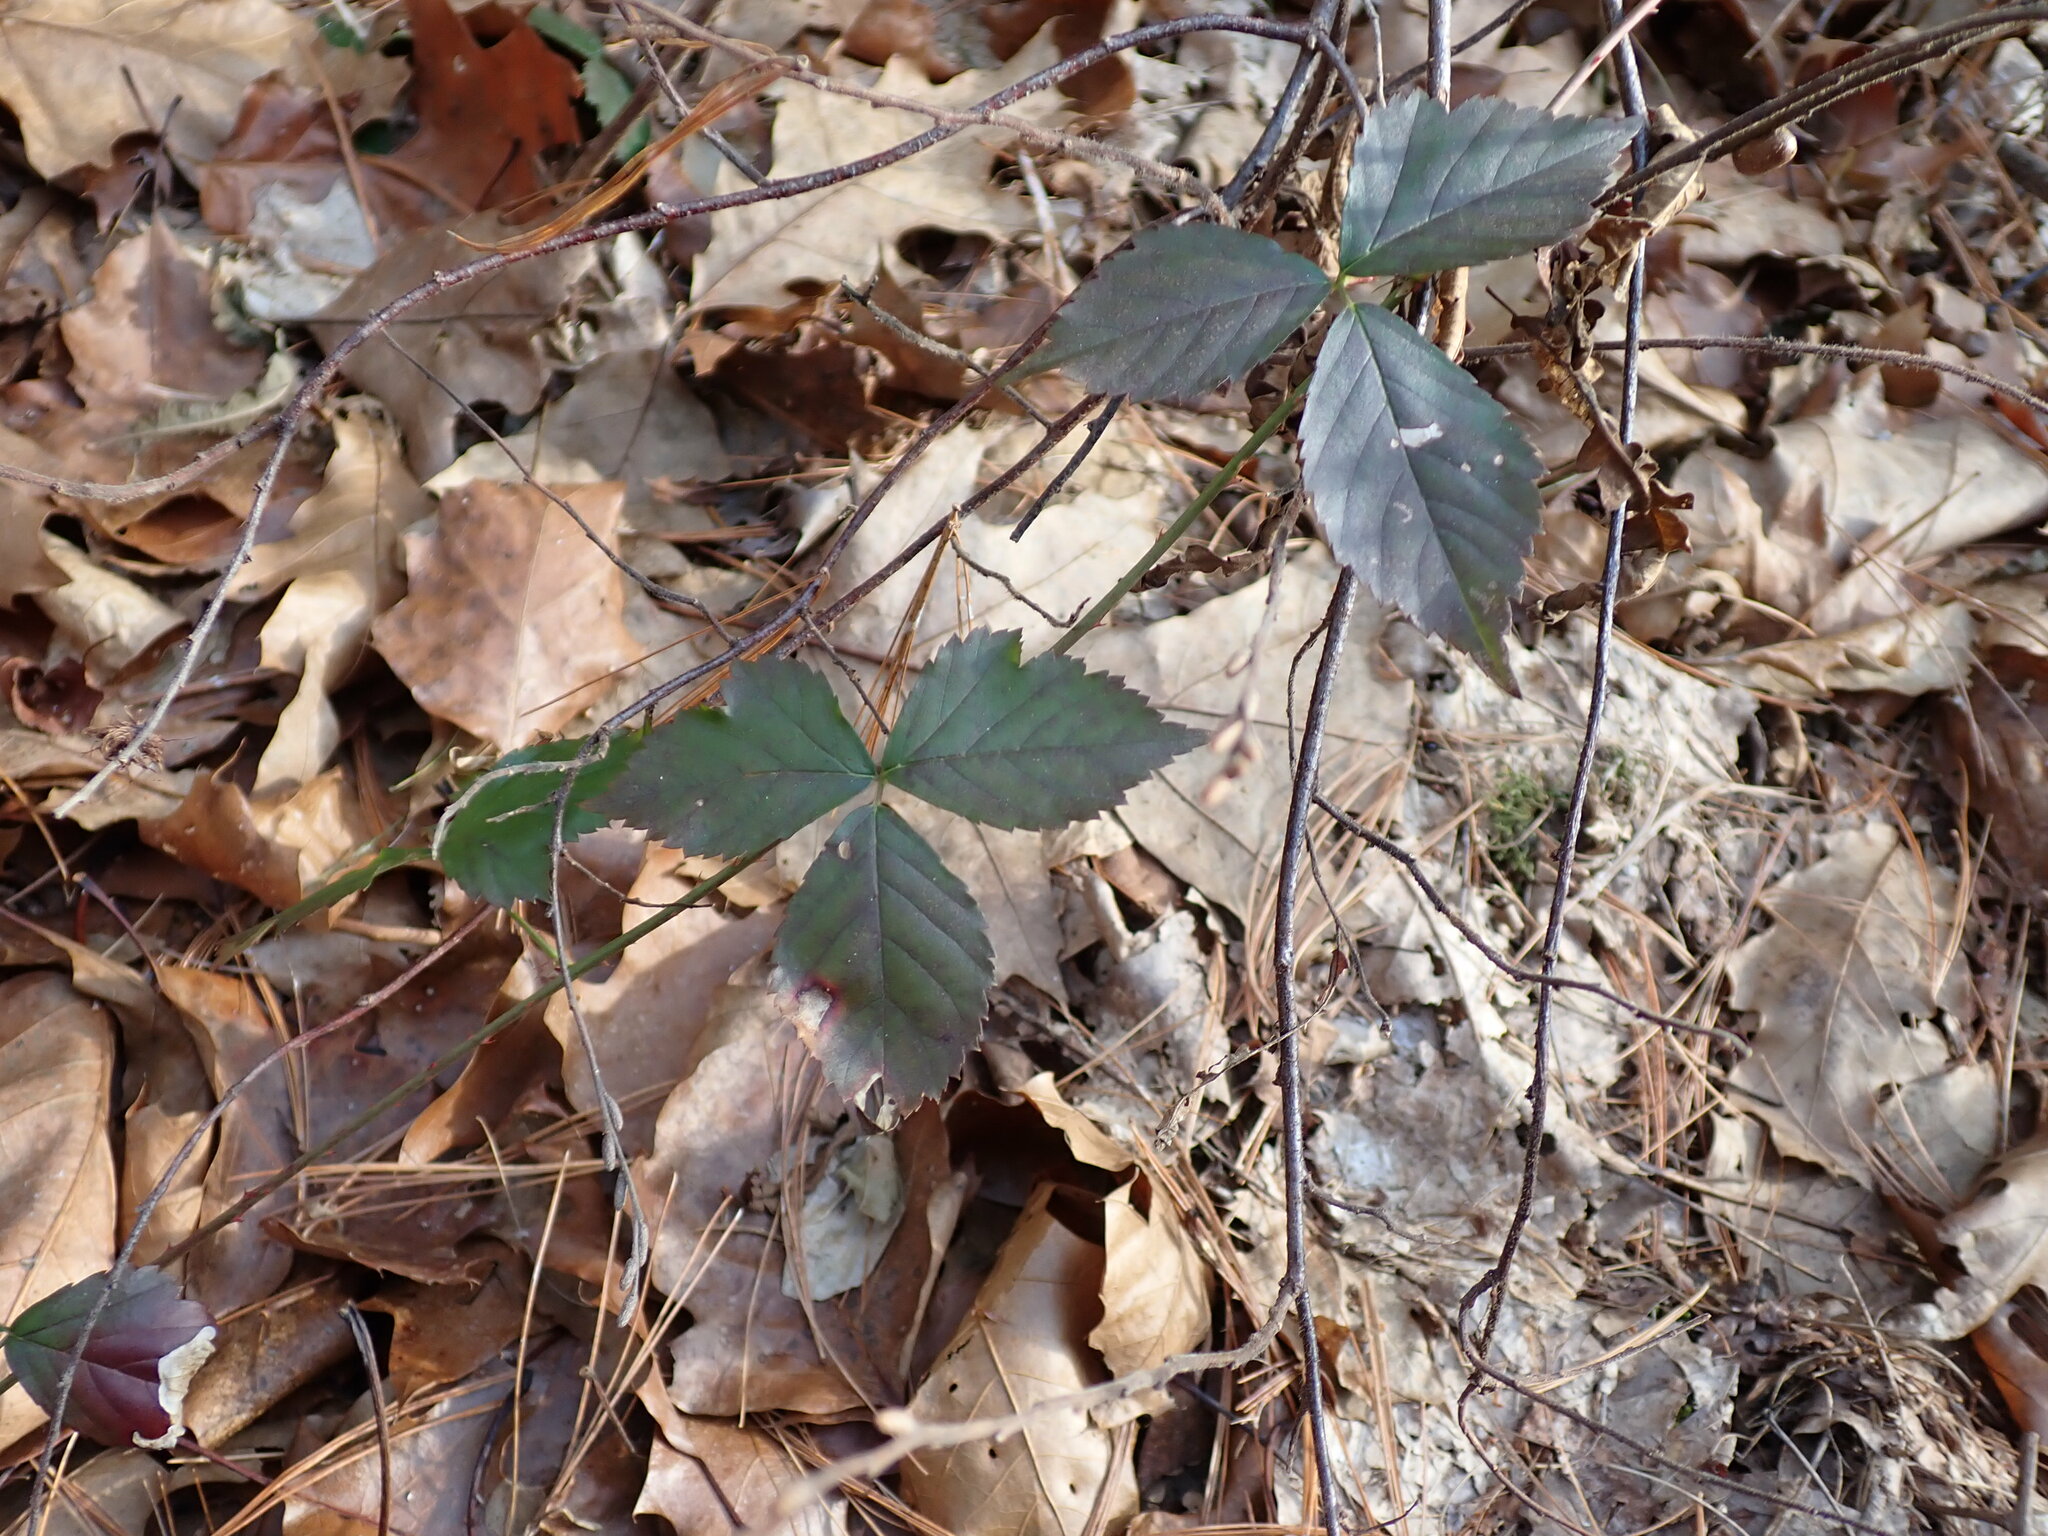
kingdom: Plantae
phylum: Tracheophyta
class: Magnoliopsida
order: Rosales
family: Rosaceae
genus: Rubus
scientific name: Rubus hispidus
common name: Running blackberry
